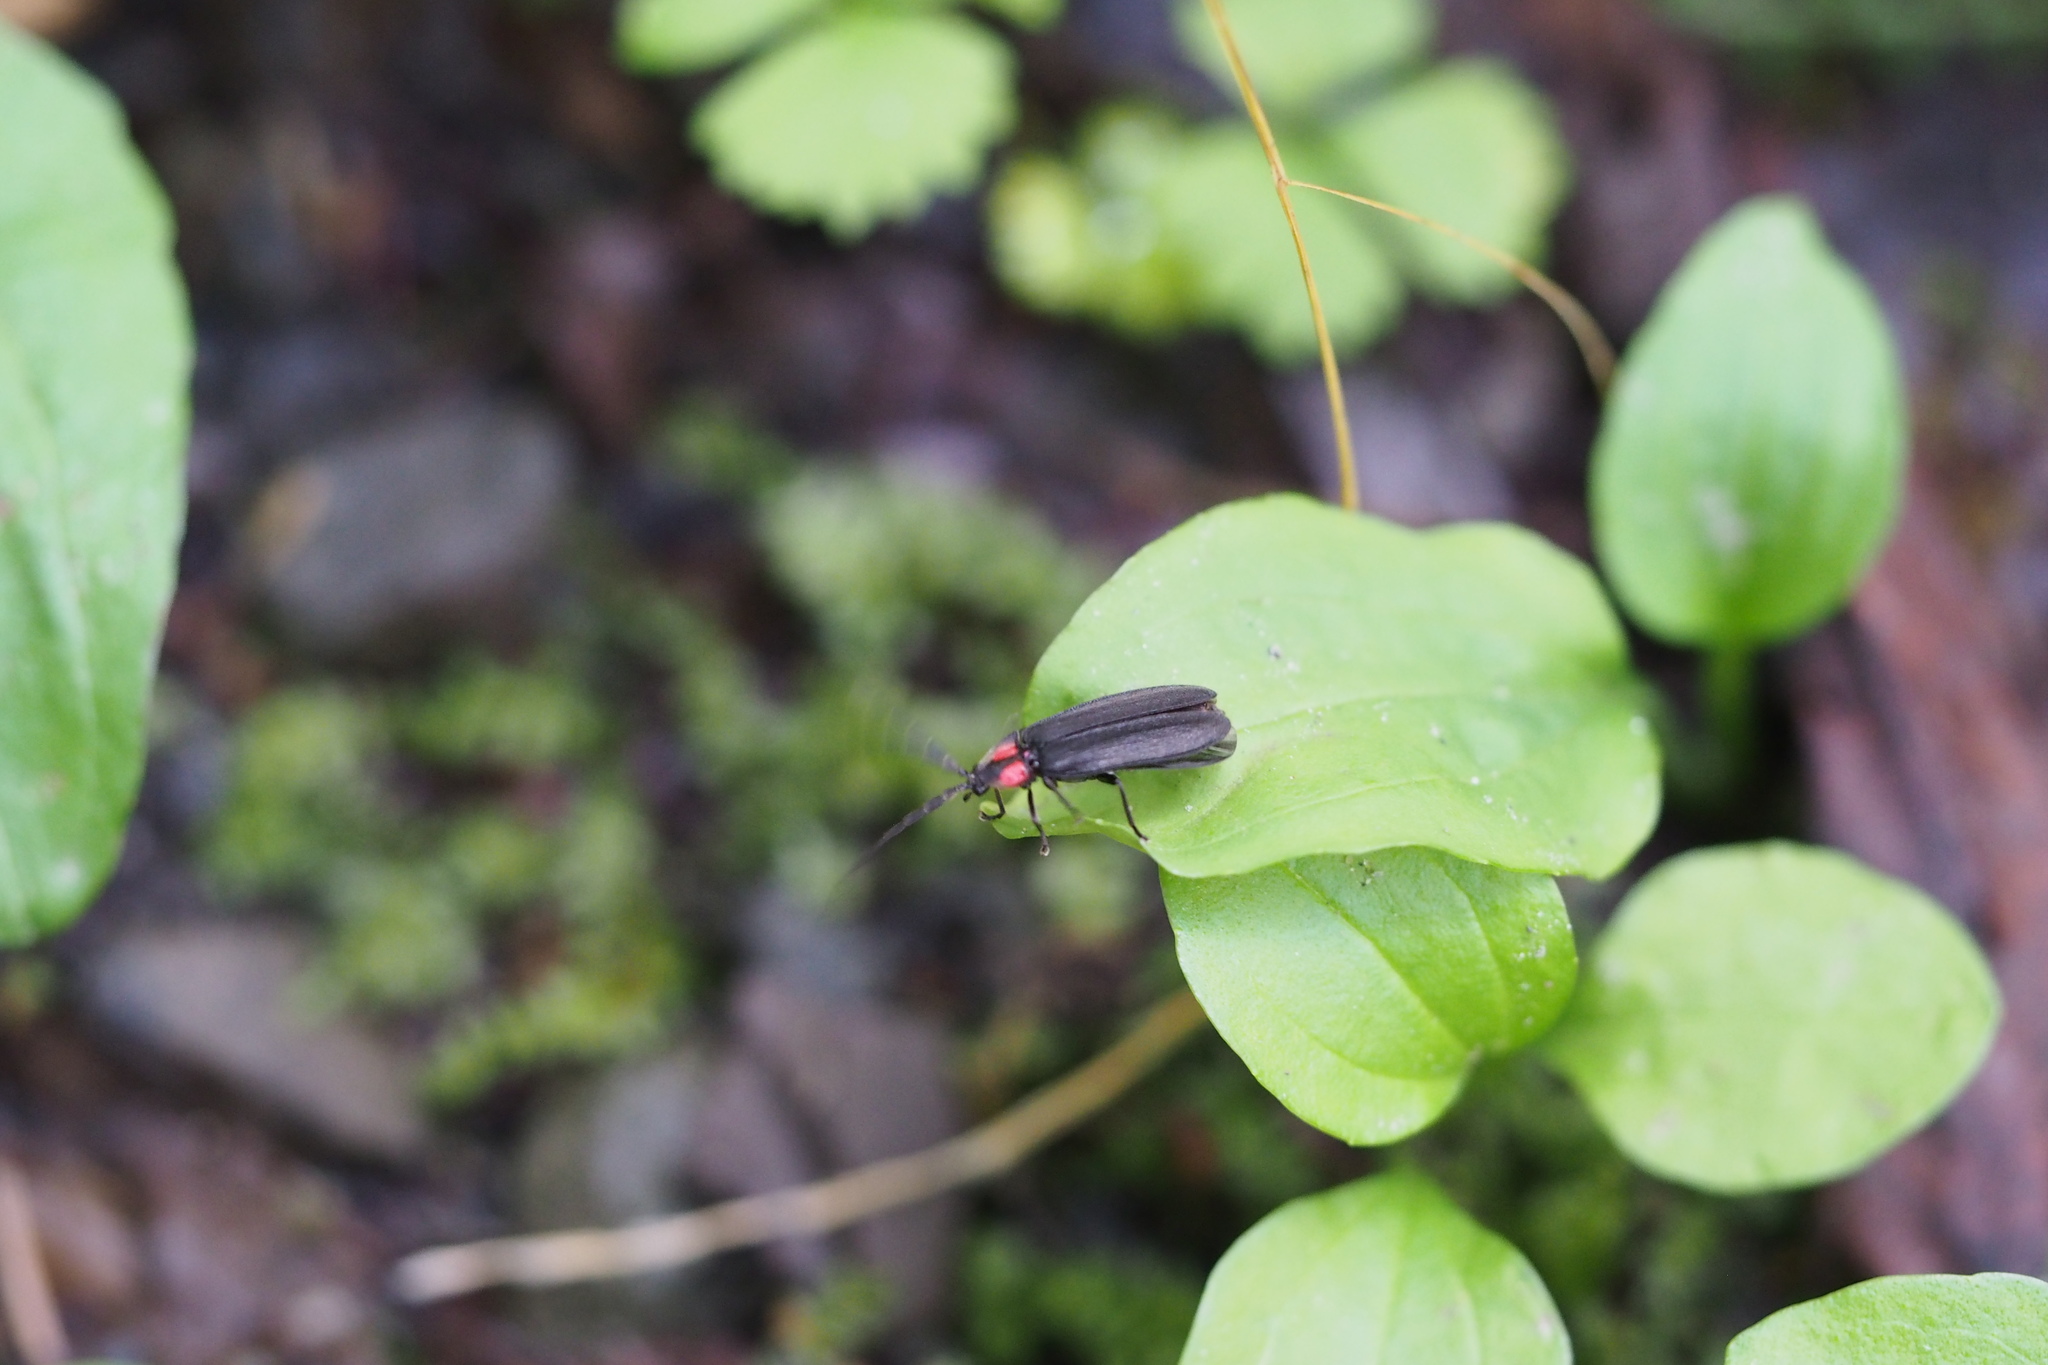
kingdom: Animalia
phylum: Arthropoda
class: Insecta
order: Coleoptera
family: Lampyridae
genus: Lucidina
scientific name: Lucidina biplagiata
